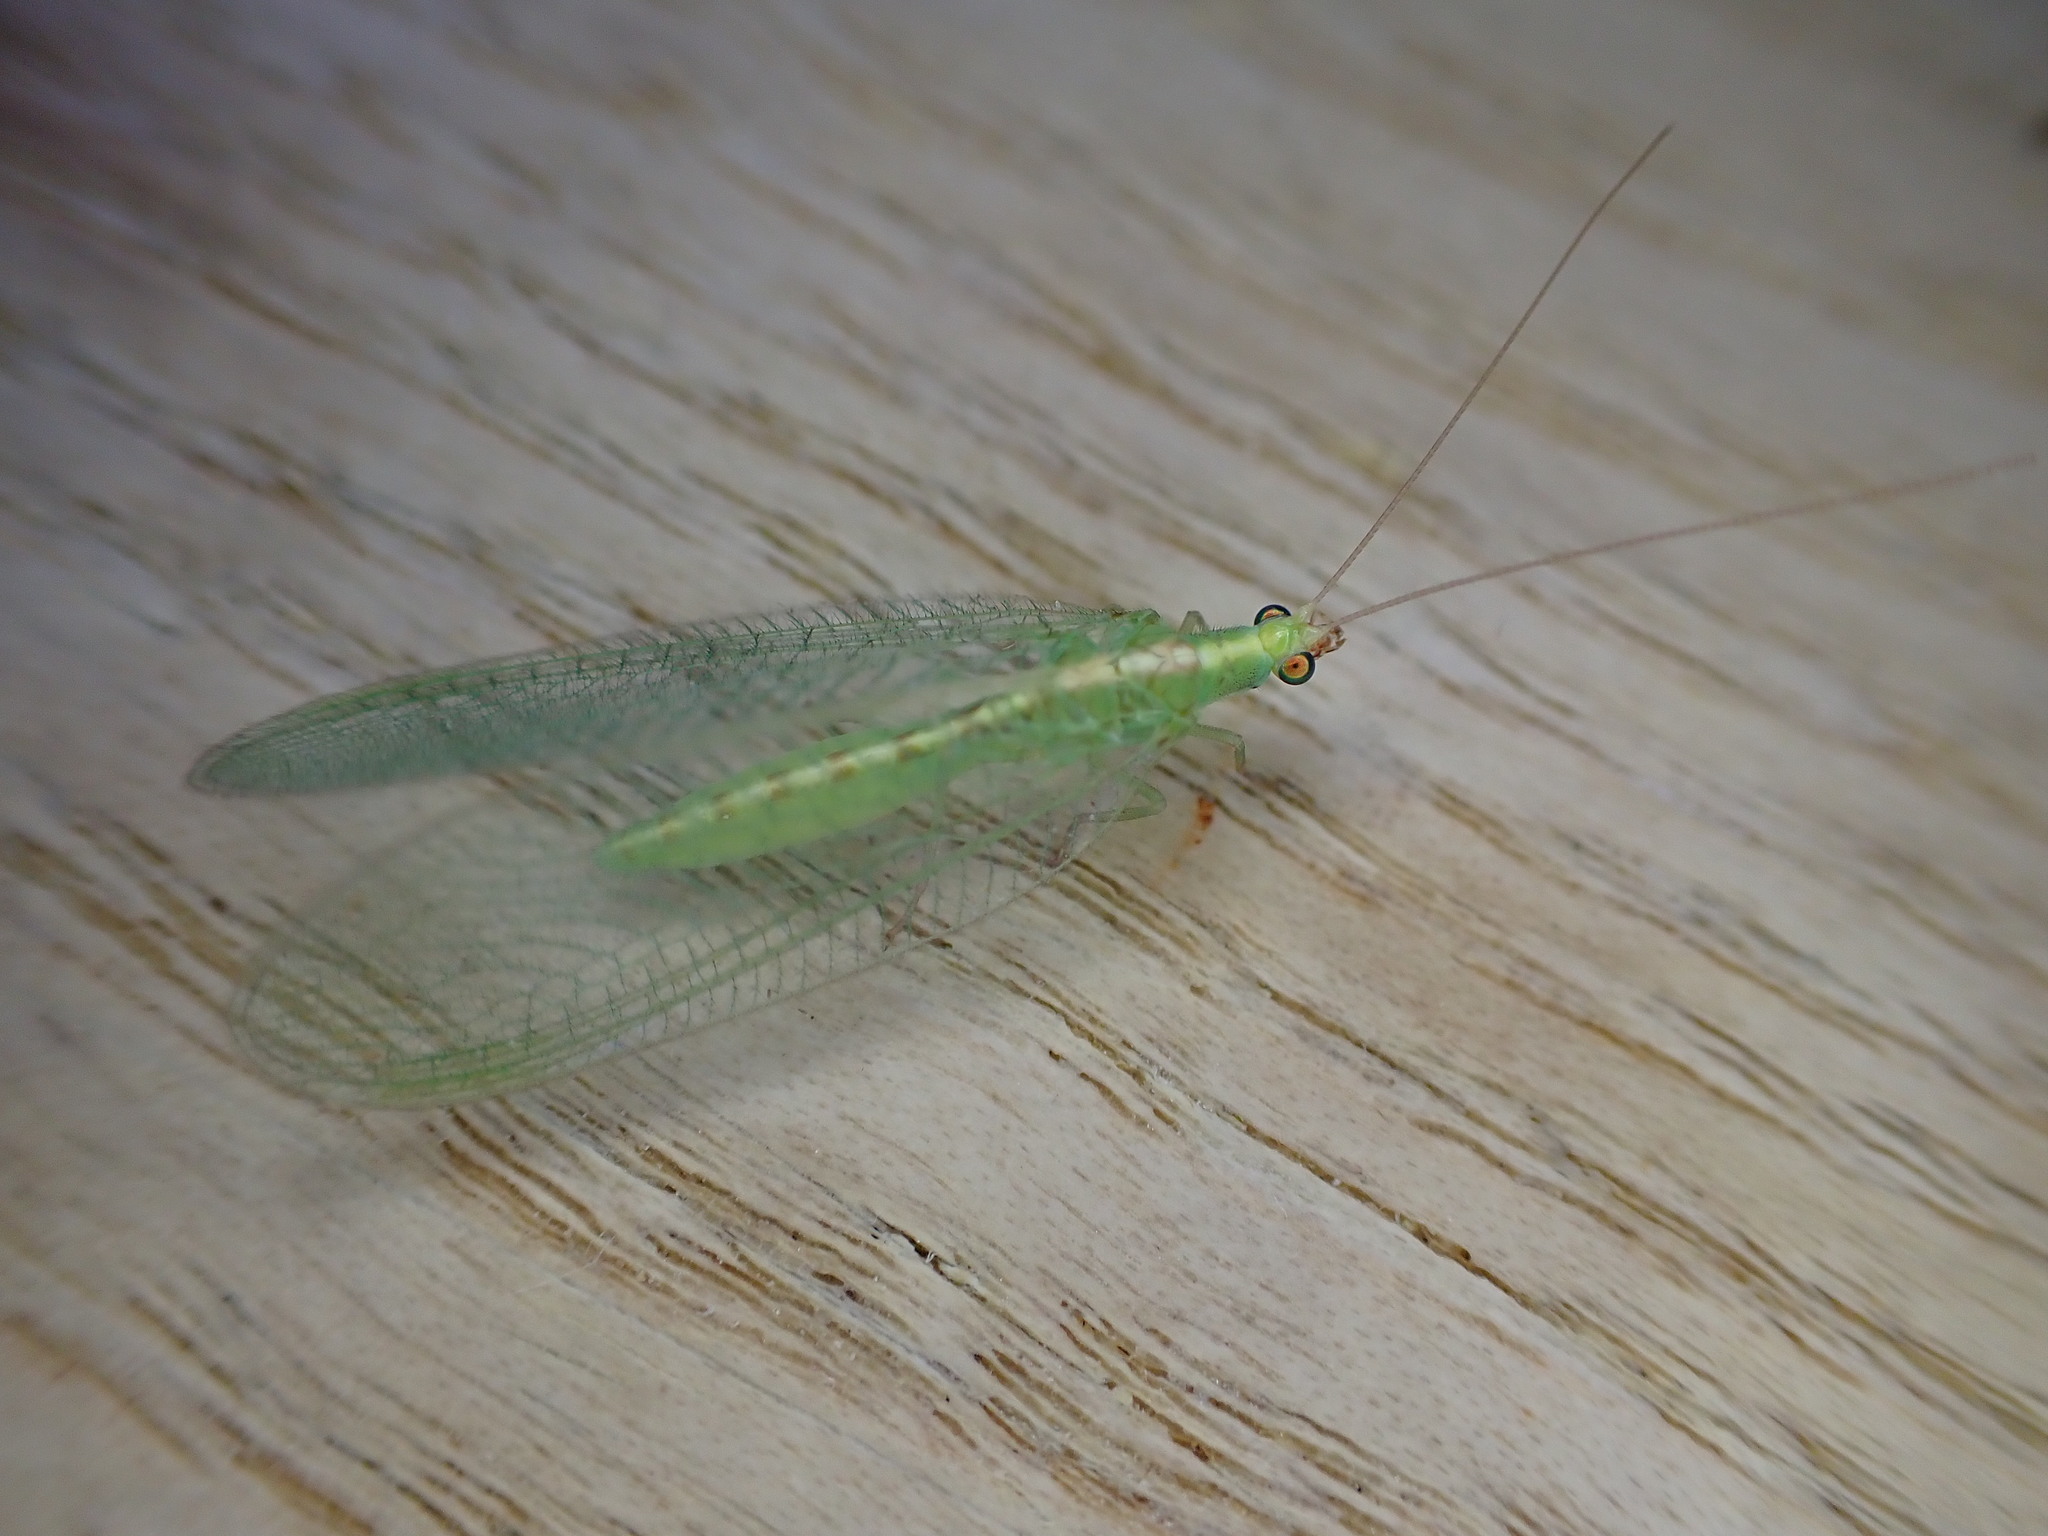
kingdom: Animalia
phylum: Arthropoda
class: Insecta
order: Neuroptera
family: Chrysopidae
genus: Chrysoperla
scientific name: Chrysoperla
